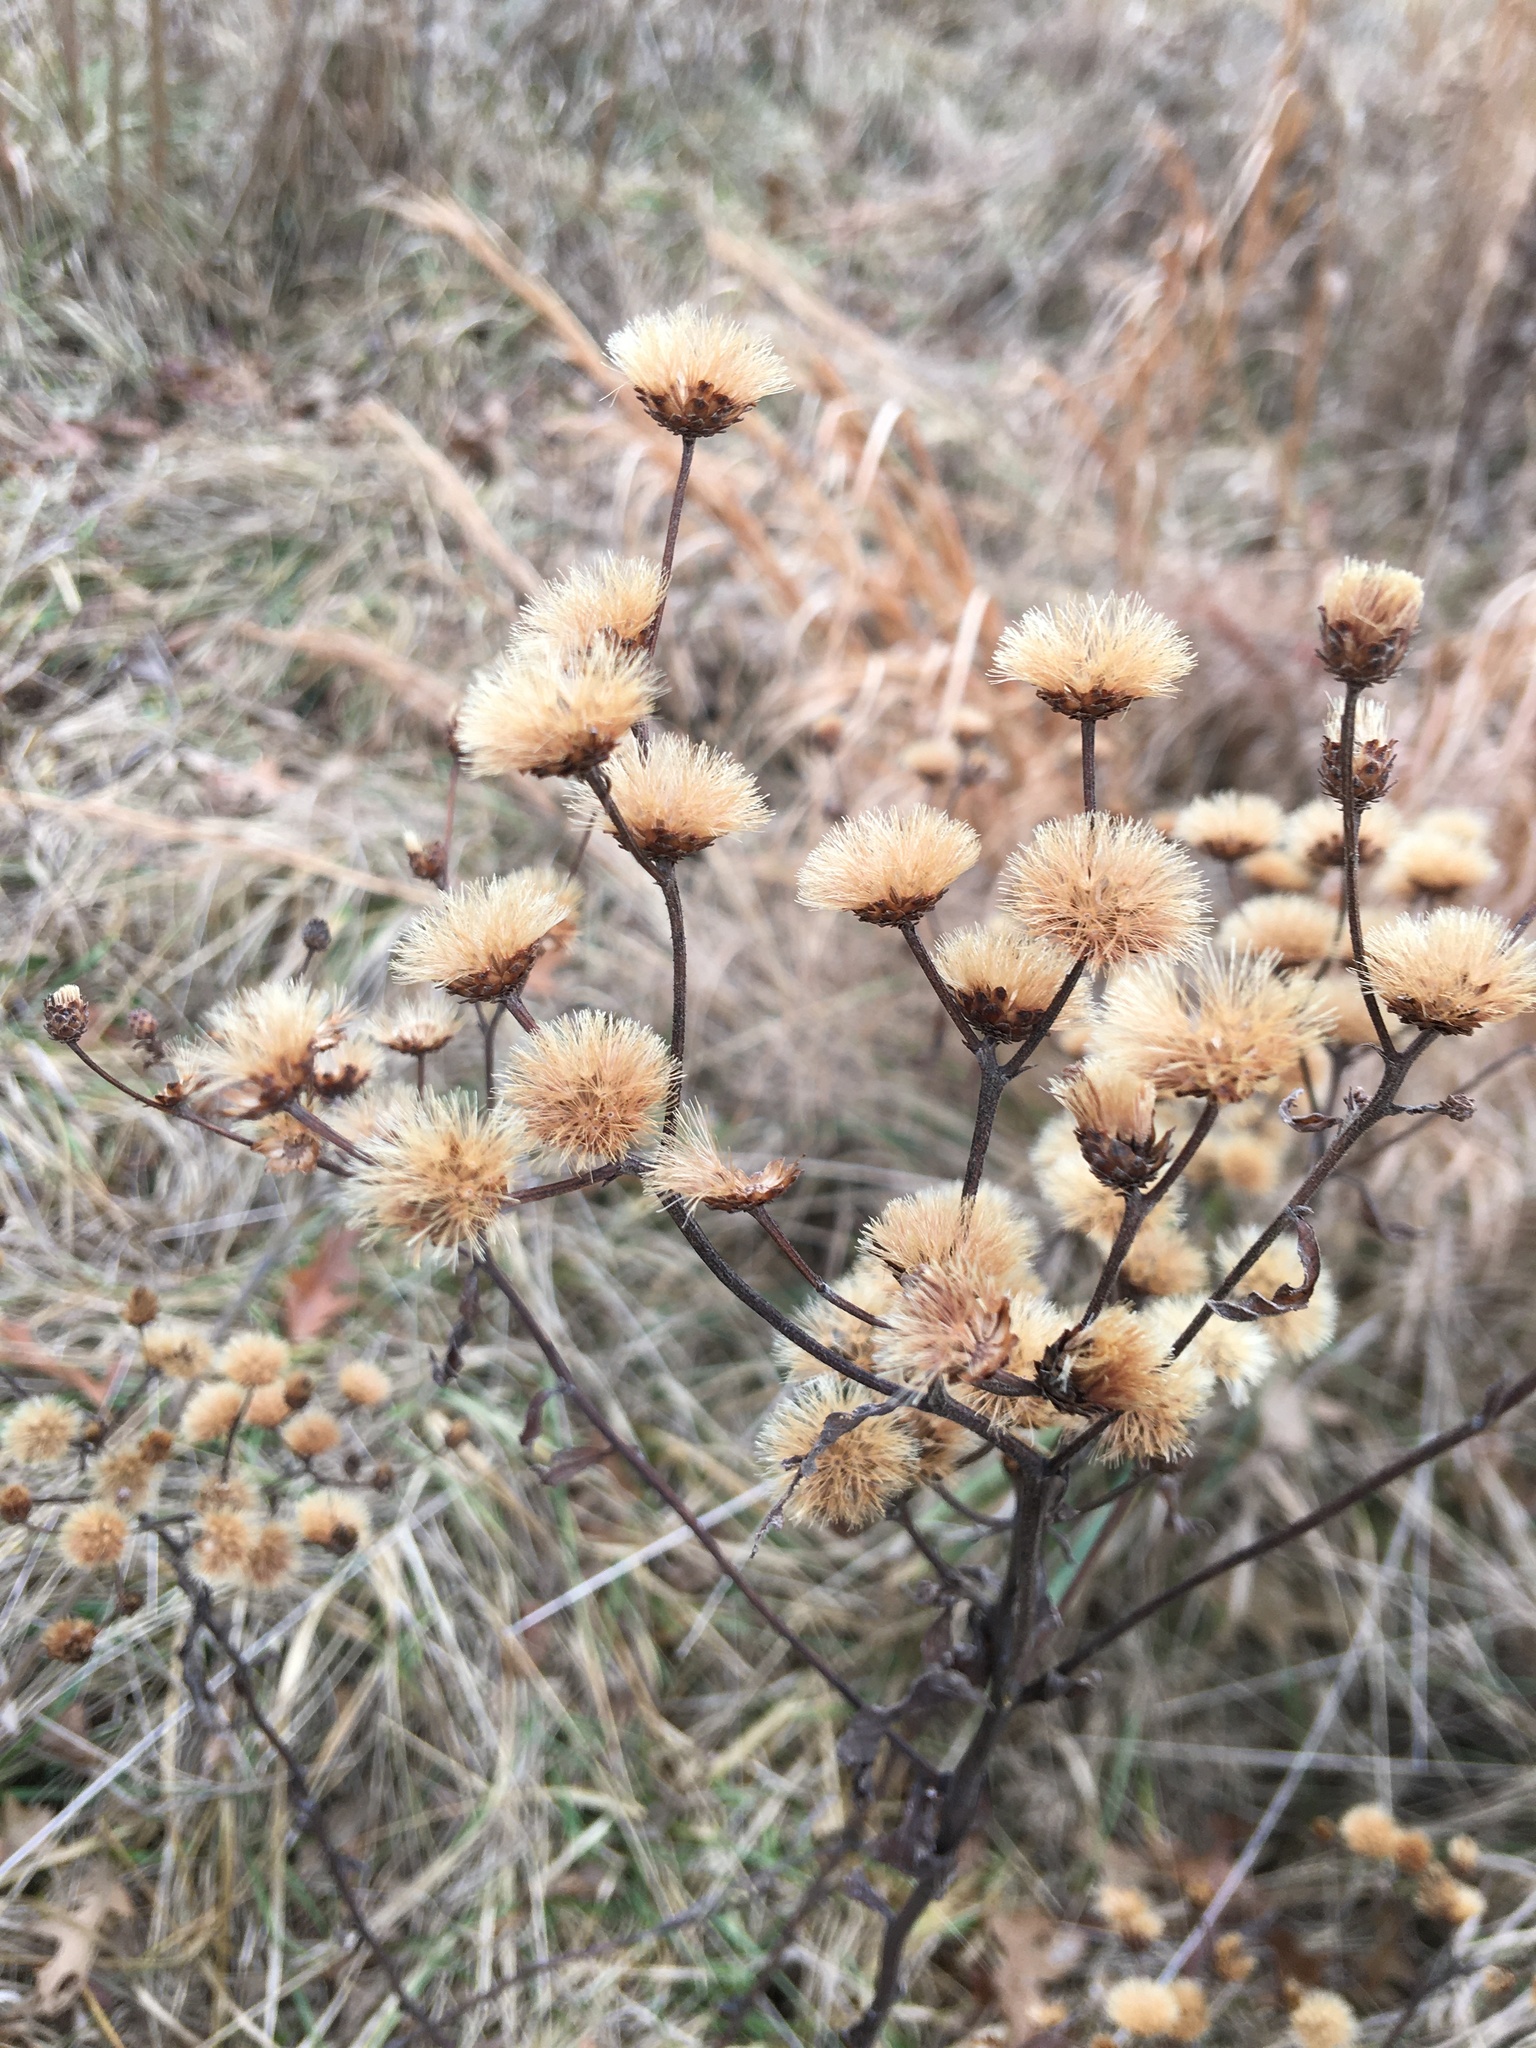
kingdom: Plantae
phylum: Tracheophyta
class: Magnoliopsida
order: Asterales
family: Asteraceae
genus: Vernonia
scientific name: Vernonia missurica
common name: Missouri ironweed
